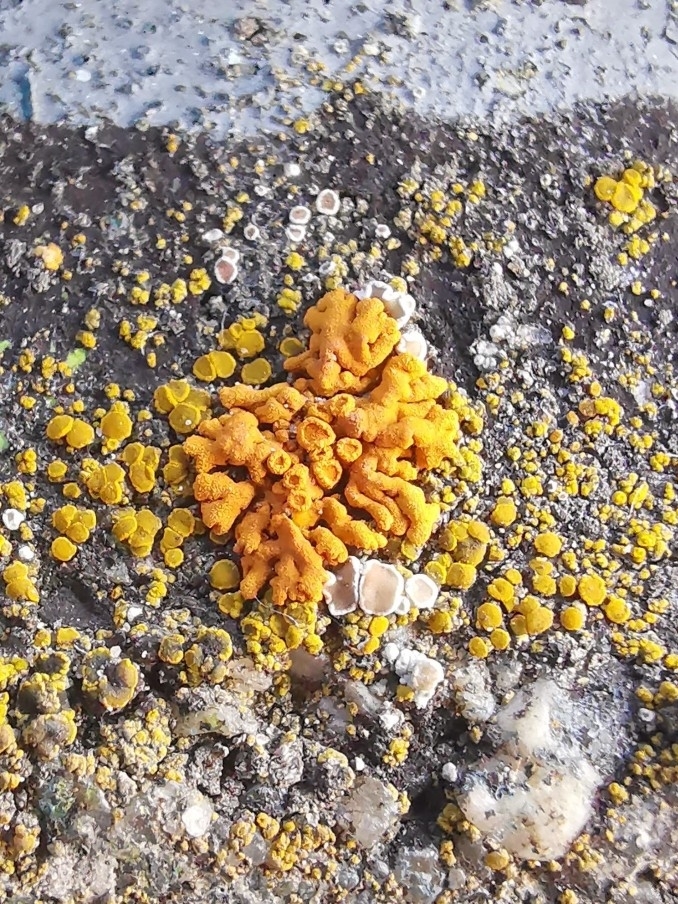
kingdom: Fungi
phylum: Ascomycota
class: Lecanoromycetes
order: Teloschistales
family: Teloschistaceae
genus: Xanthoria
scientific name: Xanthoria elegans
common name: Elegant sunburst lichen
